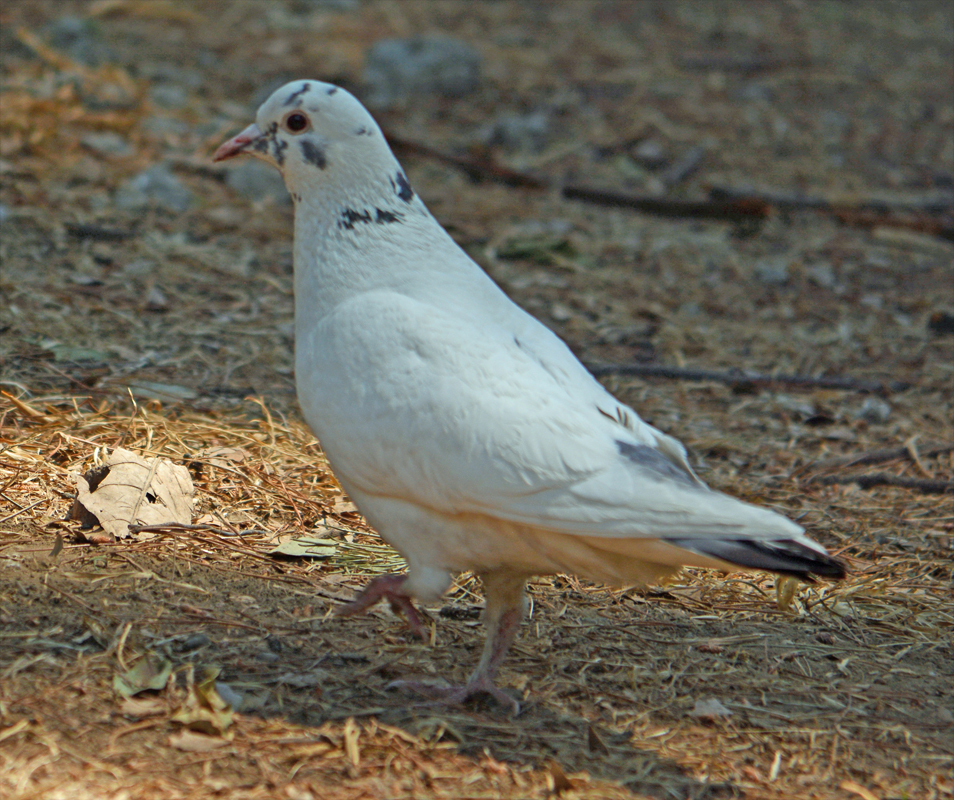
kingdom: Animalia
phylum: Chordata
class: Aves
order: Columbiformes
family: Columbidae
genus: Columba
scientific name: Columba livia
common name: Rock pigeon
